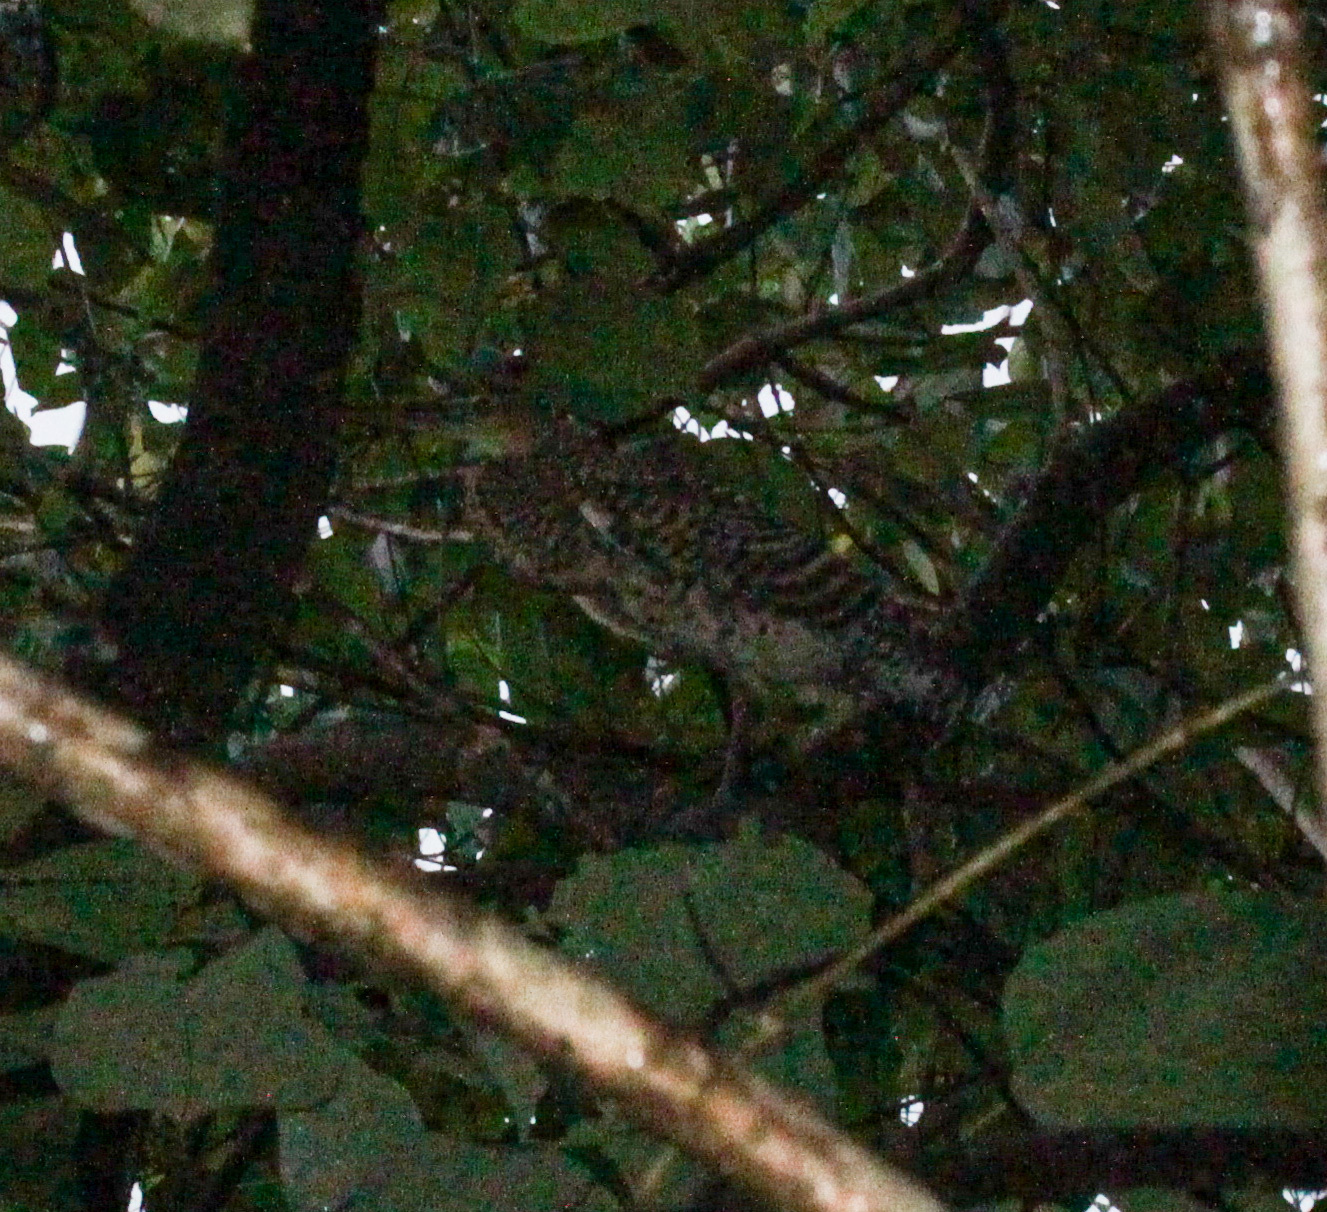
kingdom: Animalia
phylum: Chordata
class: Aves
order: Pelecaniformes
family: Ardeidae
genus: Tigrisoma
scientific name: Tigrisoma mexicanum
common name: Bare-throated tiger-heron
